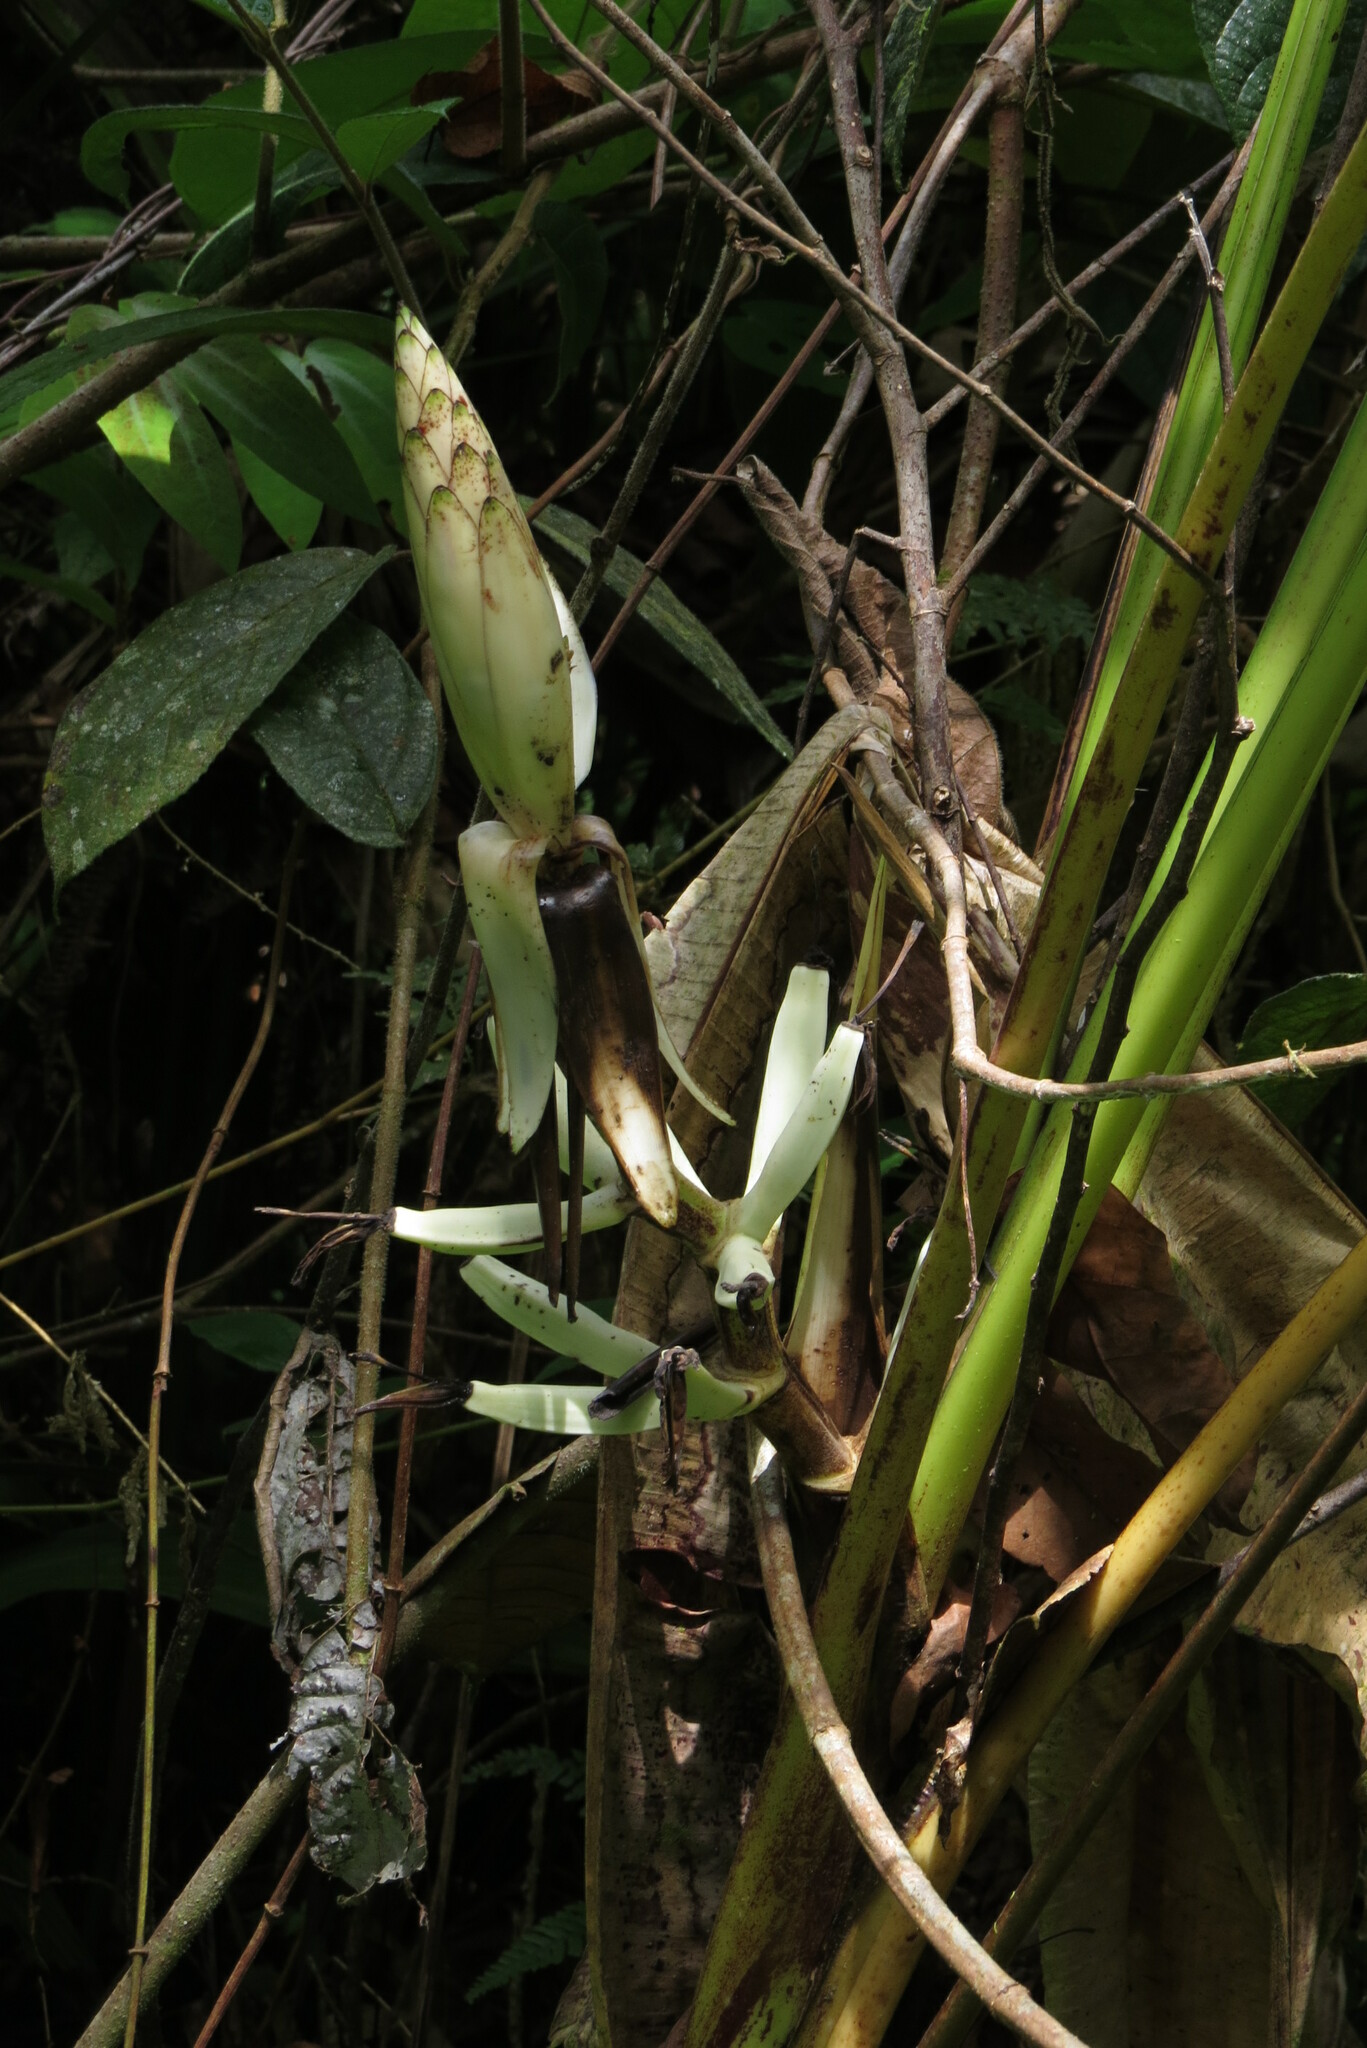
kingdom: Plantae
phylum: Tracheophyta
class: Liliopsida
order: Zingiberales
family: Musaceae
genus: Musa
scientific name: Musa gracilis
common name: Johore banana
